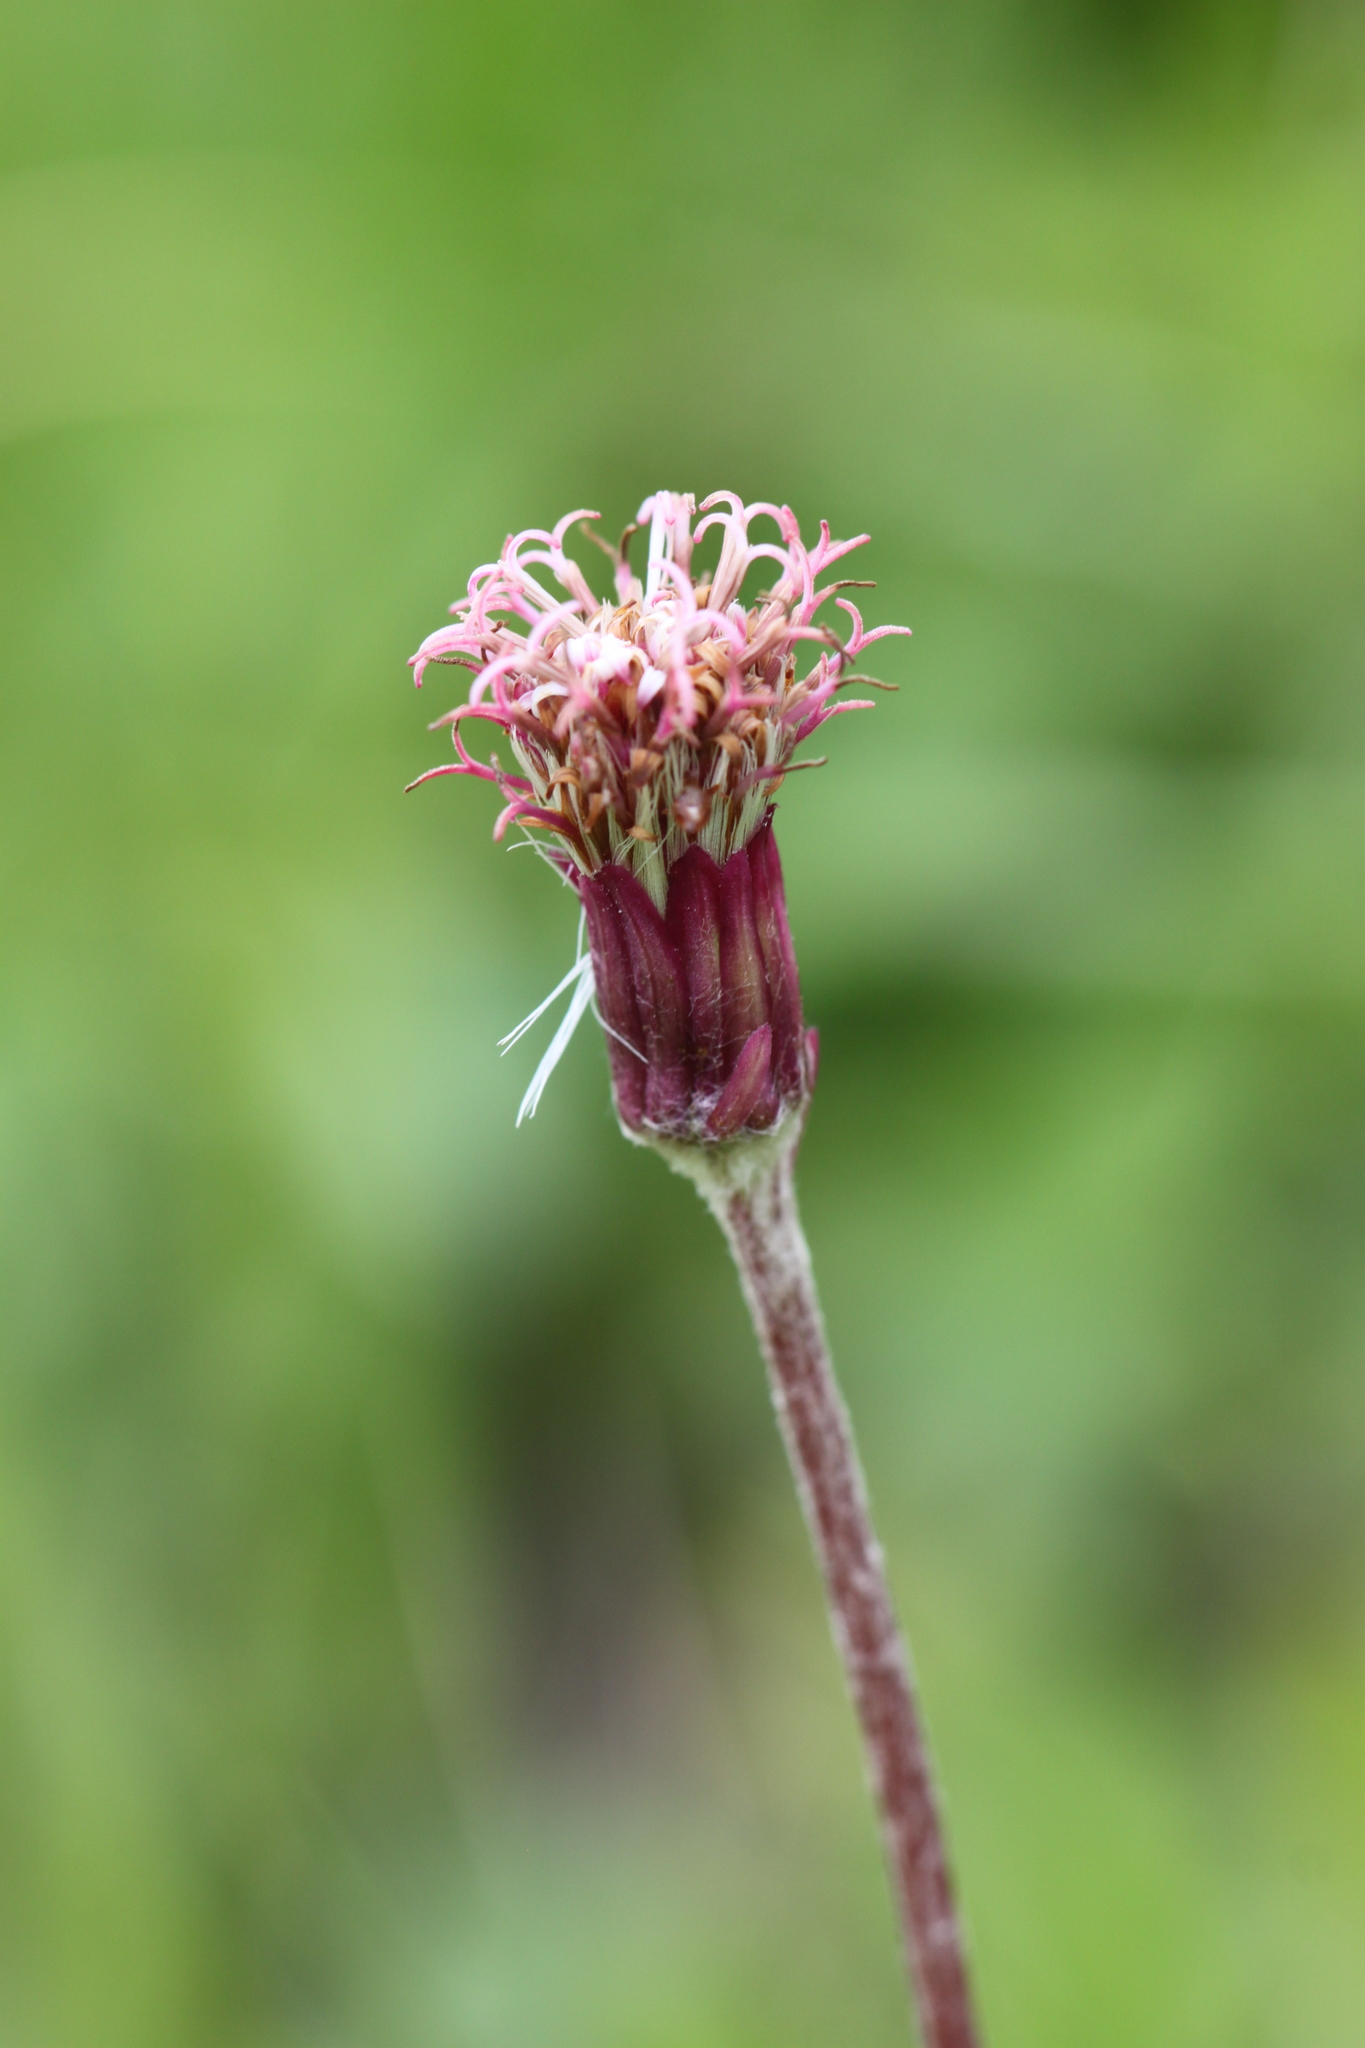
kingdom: Plantae
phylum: Tracheophyta
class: Magnoliopsida
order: Asterales
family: Asteraceae
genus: Homogyne
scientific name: Homogyne alpina
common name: Purple colt's-foot
